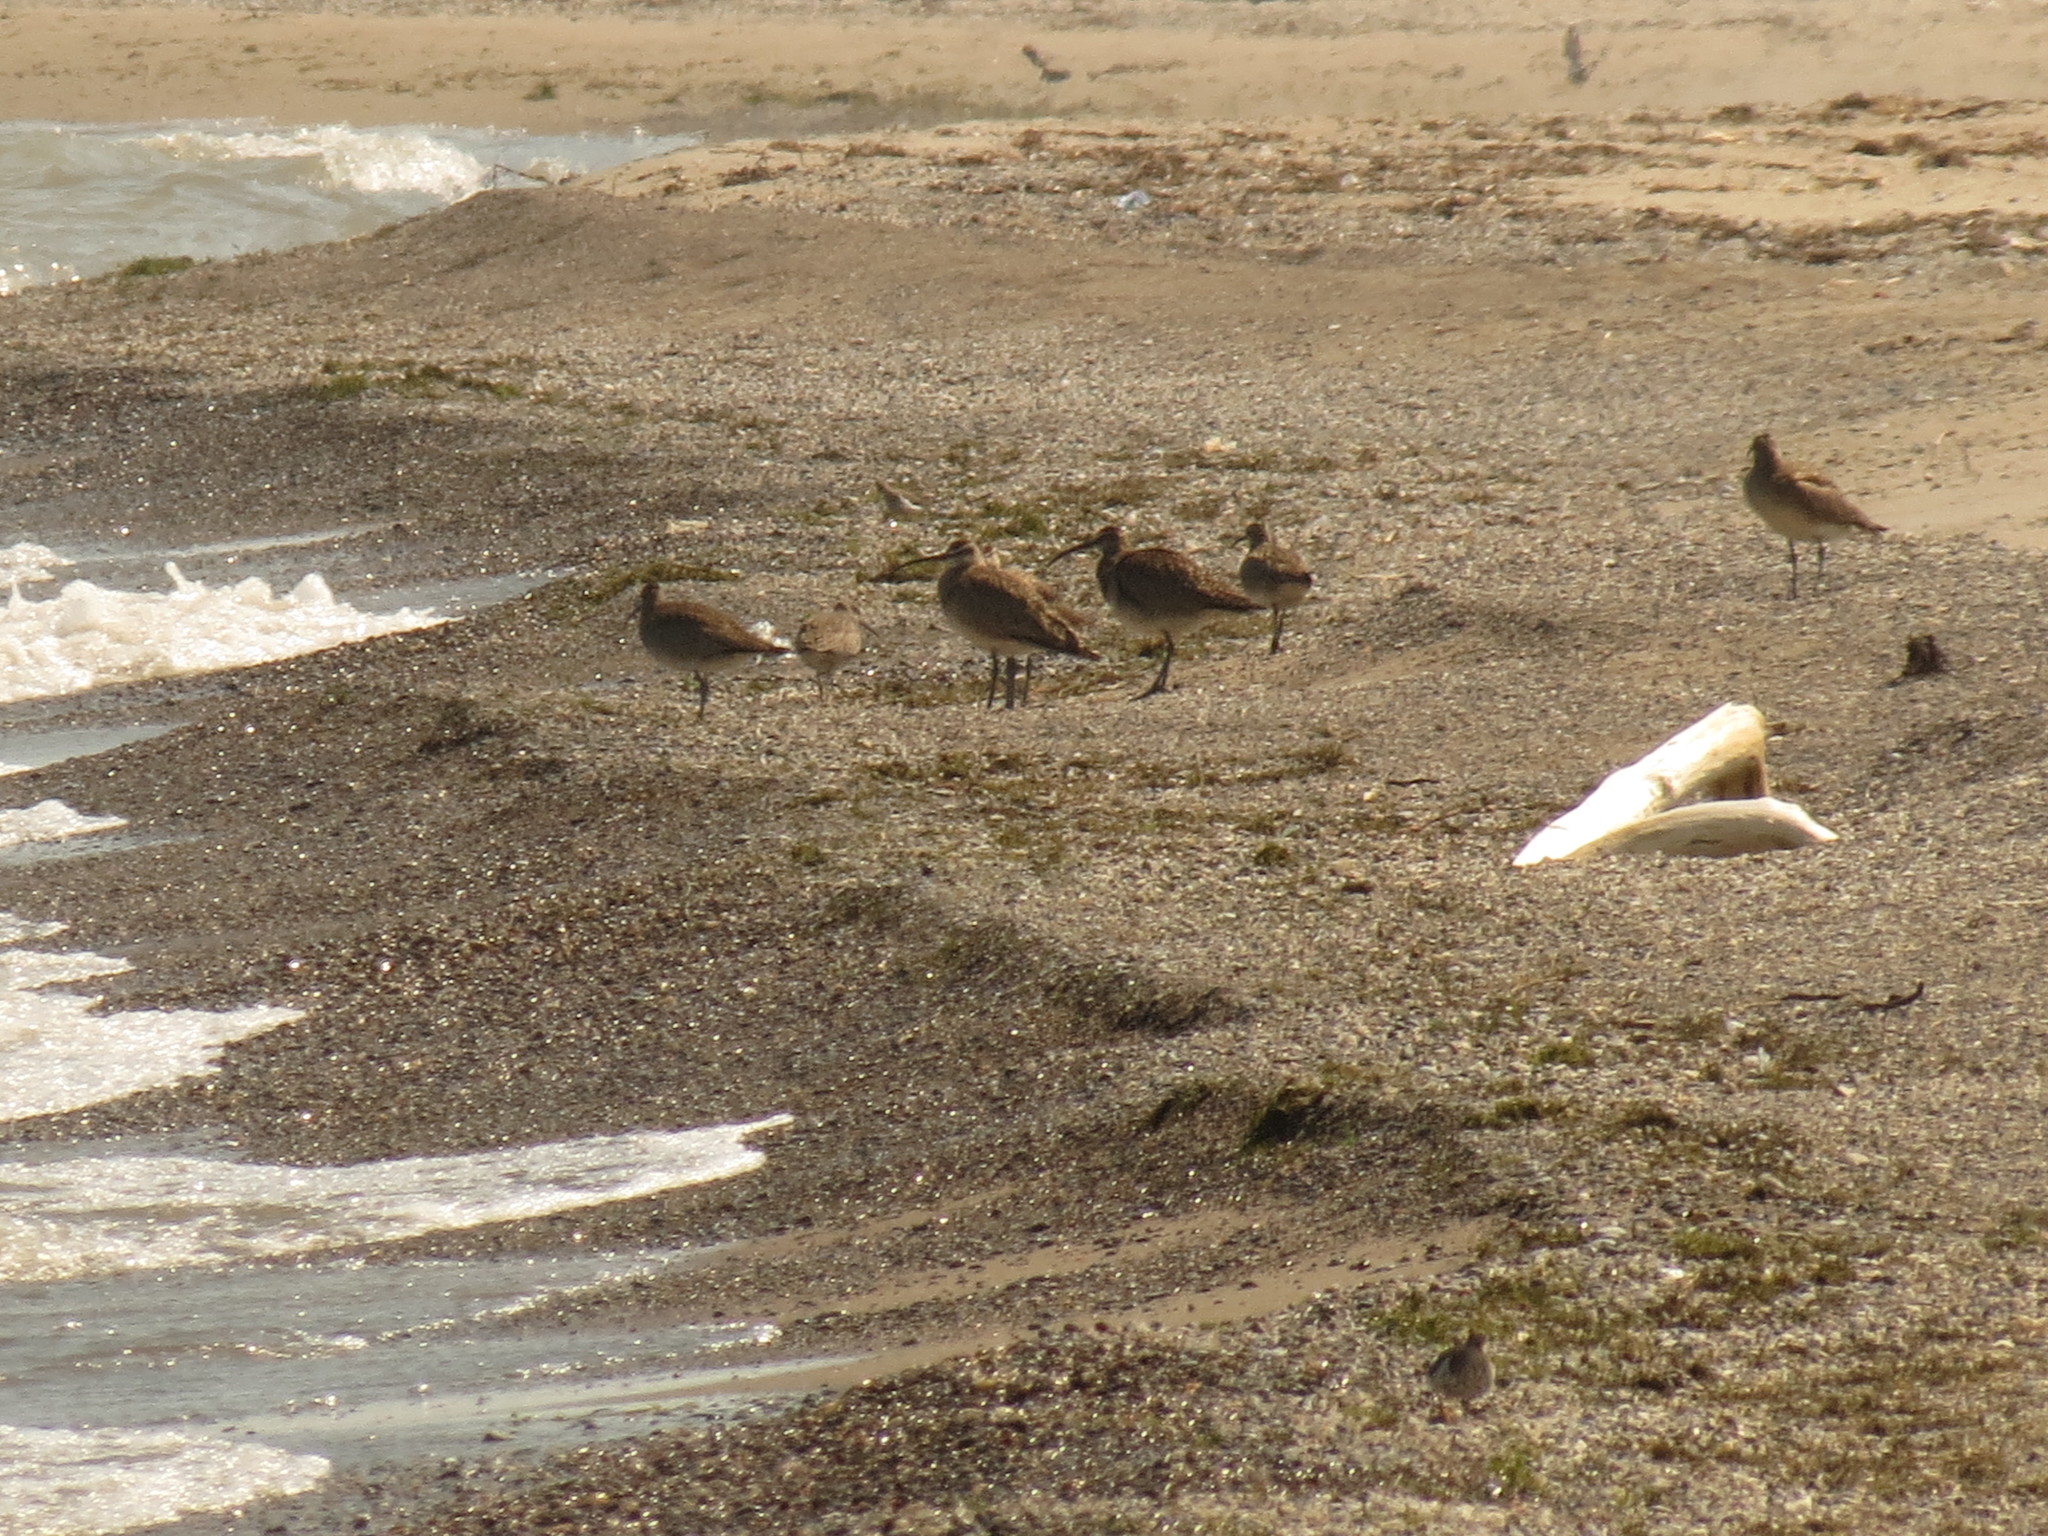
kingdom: Animalia
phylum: Chordata
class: Aves
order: Charadriiformes
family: Scolopacidae
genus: Tringa
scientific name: Tringa semipalmata
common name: Willet
